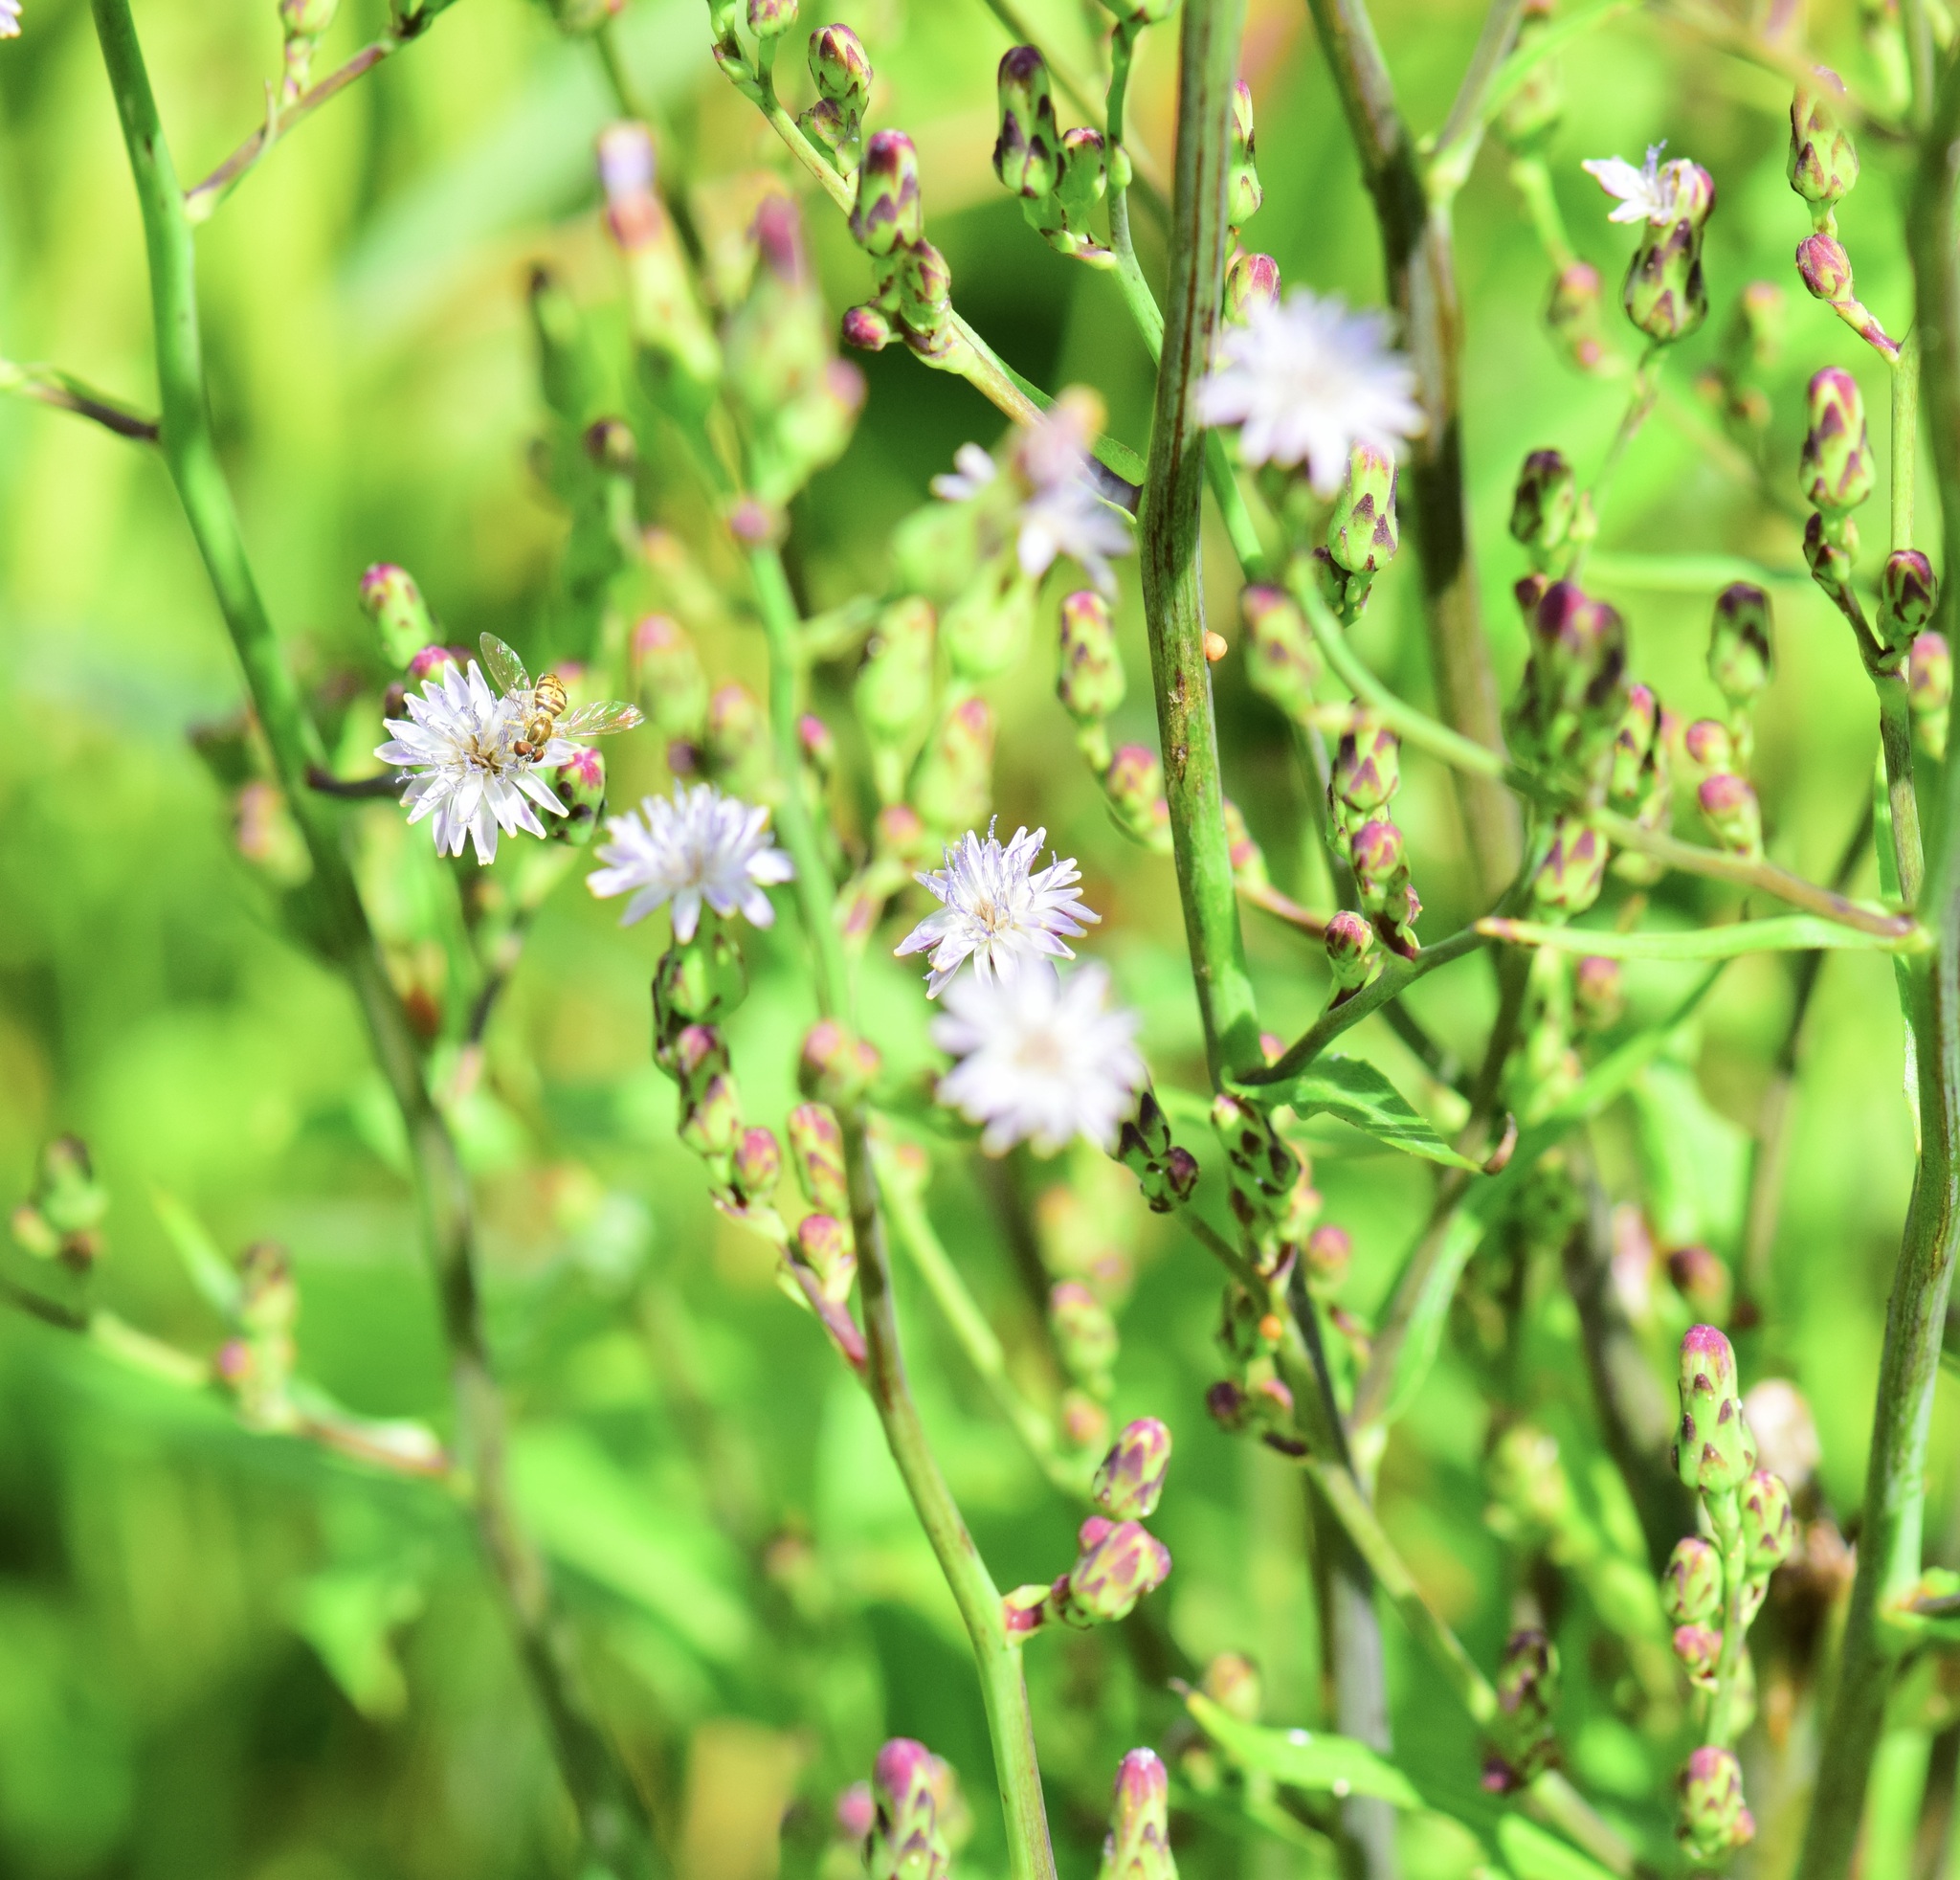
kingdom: Plantae
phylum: Tracheophyta
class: Magnoliopsida
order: Asterales
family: Asteraceae
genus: Lactuca
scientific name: Lactuca biennis
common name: Blue wood lettuce
